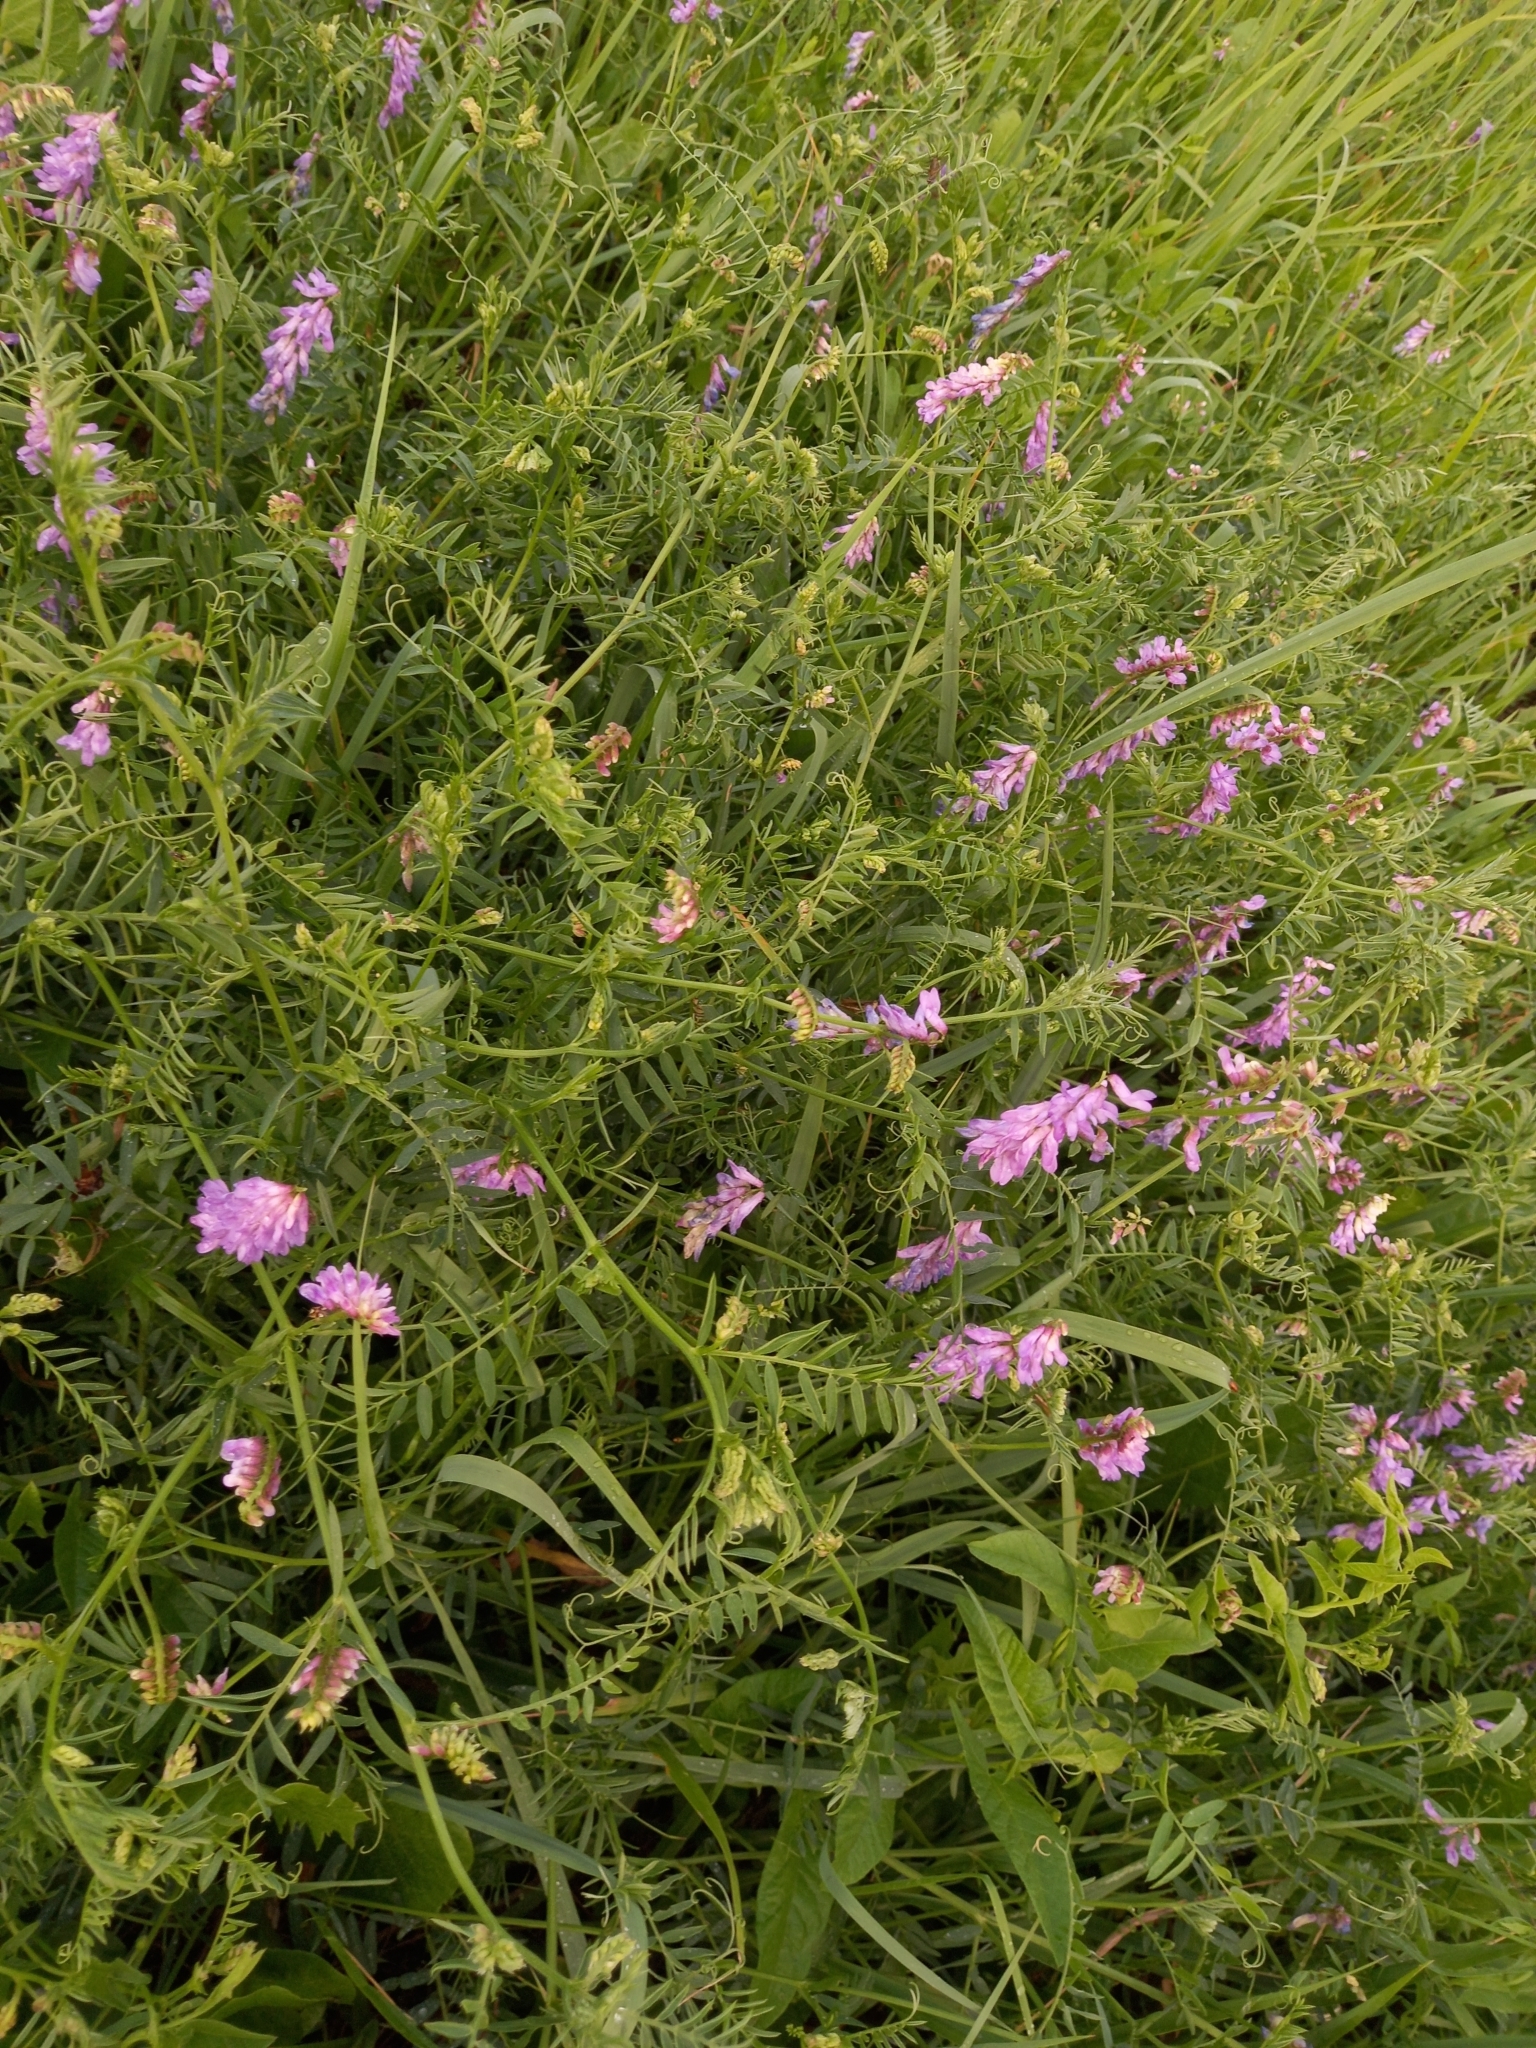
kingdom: Plantae
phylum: Tracheophyta
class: Magnoliopsida
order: Fabales
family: Fabaceae
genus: Vicia
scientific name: Vicia cracca
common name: Bird vetch
